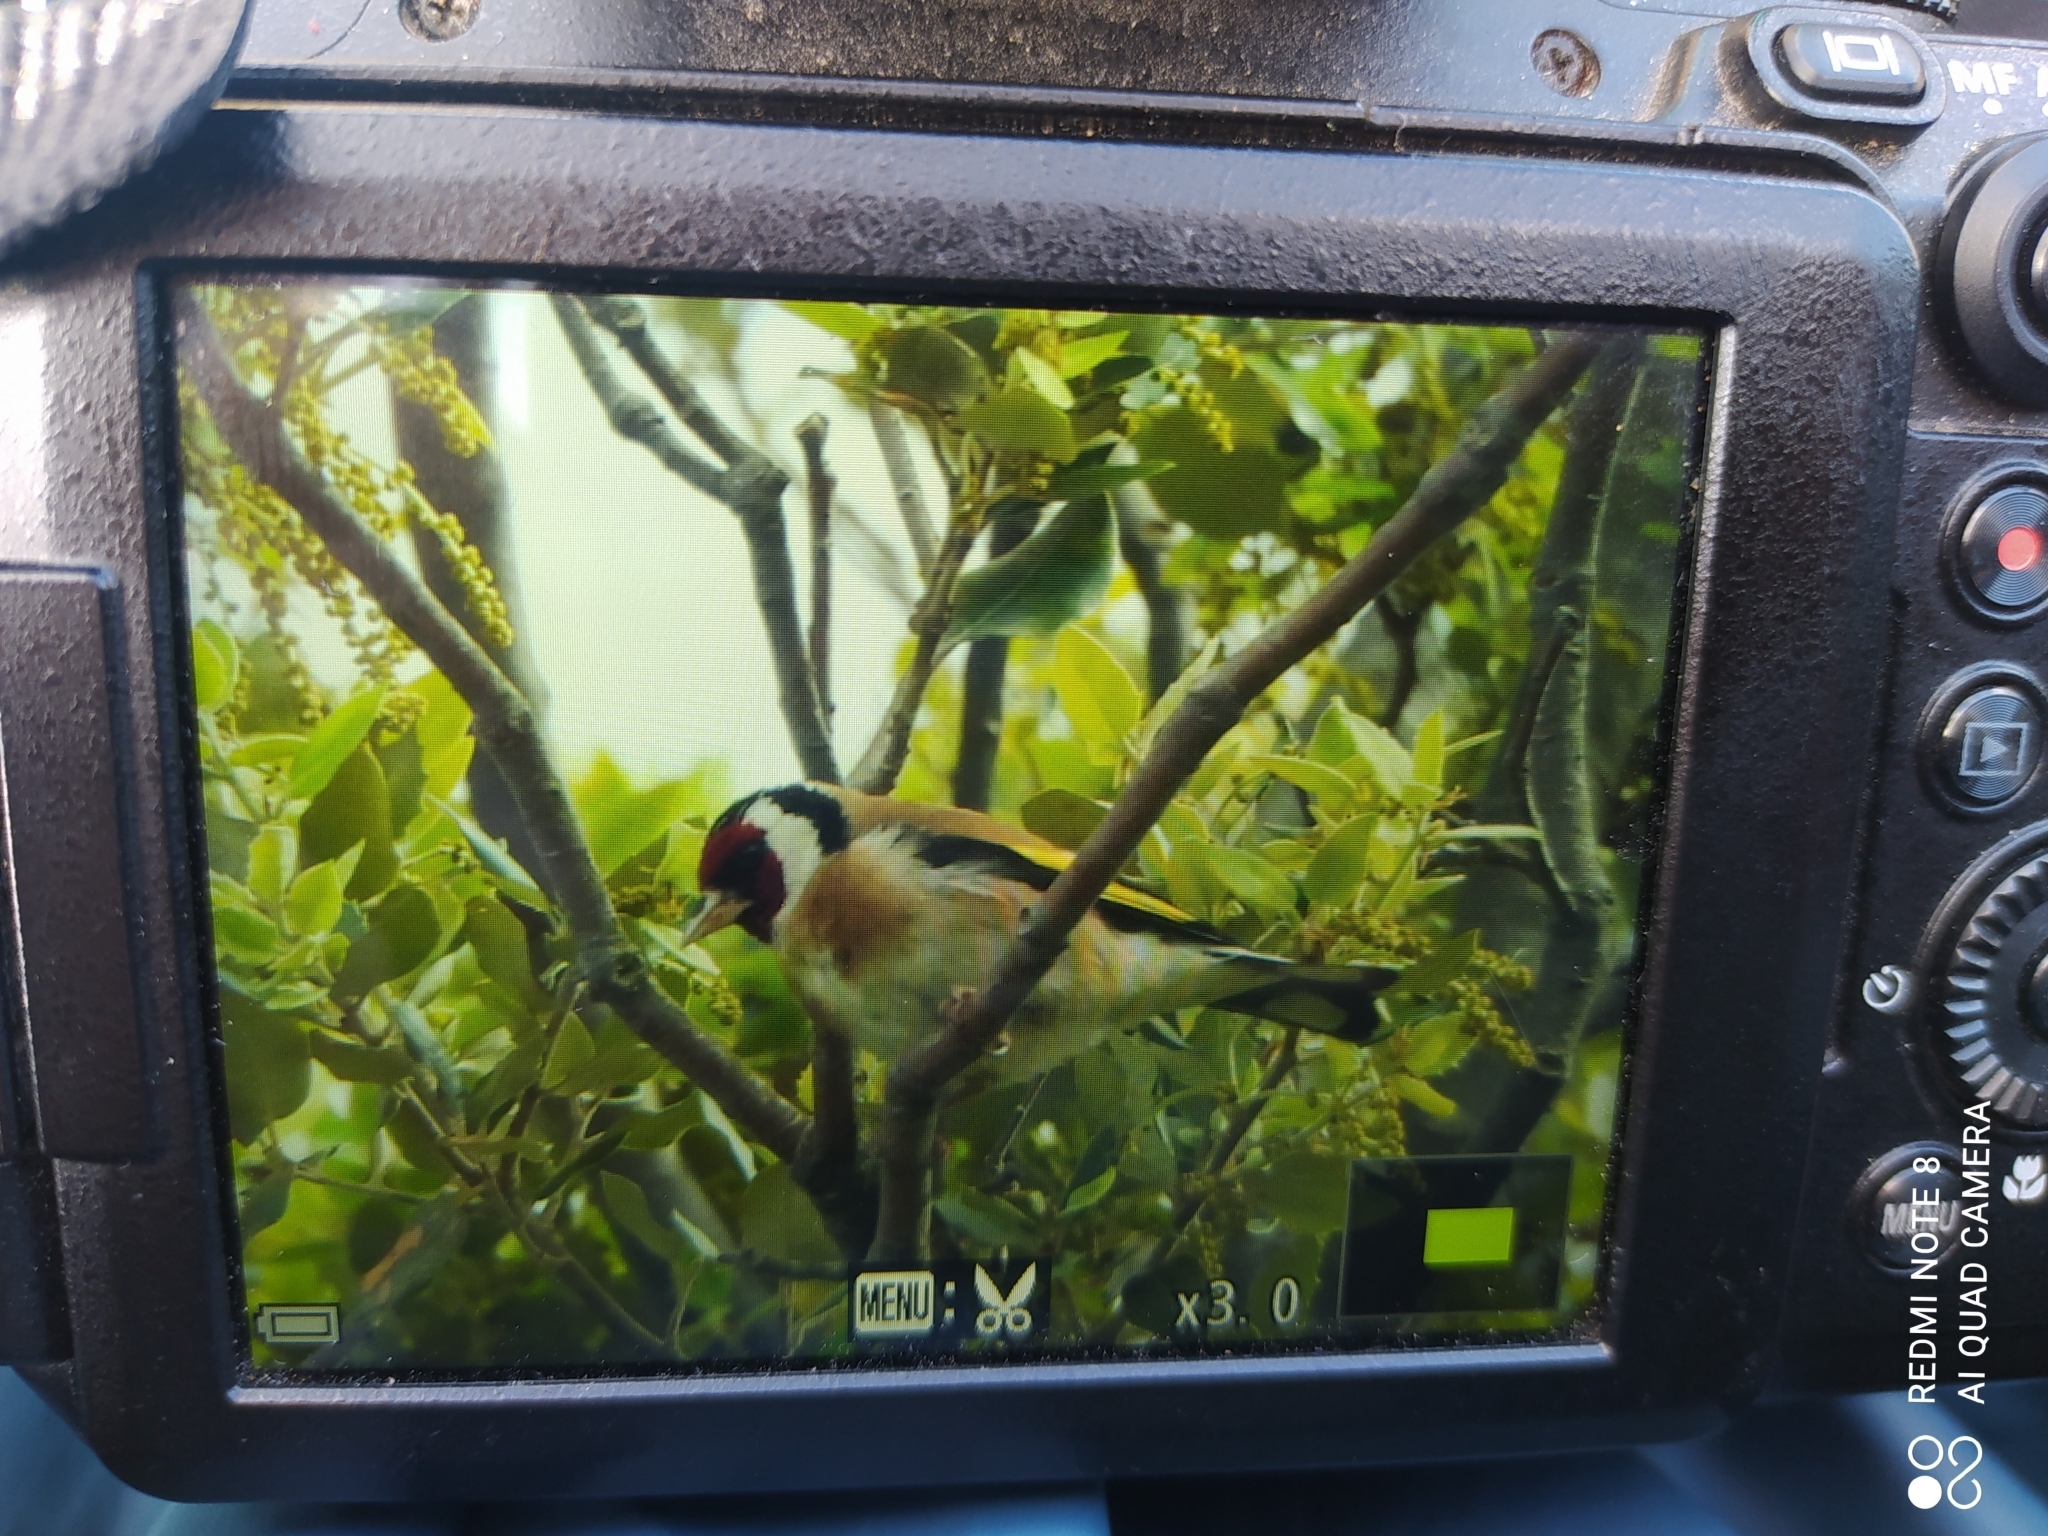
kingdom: Animalia
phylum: Chordata
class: Aves
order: Passeriformes
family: Fringillidae
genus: Carduelis
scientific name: Carduelis carduelis
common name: European goldfinch
